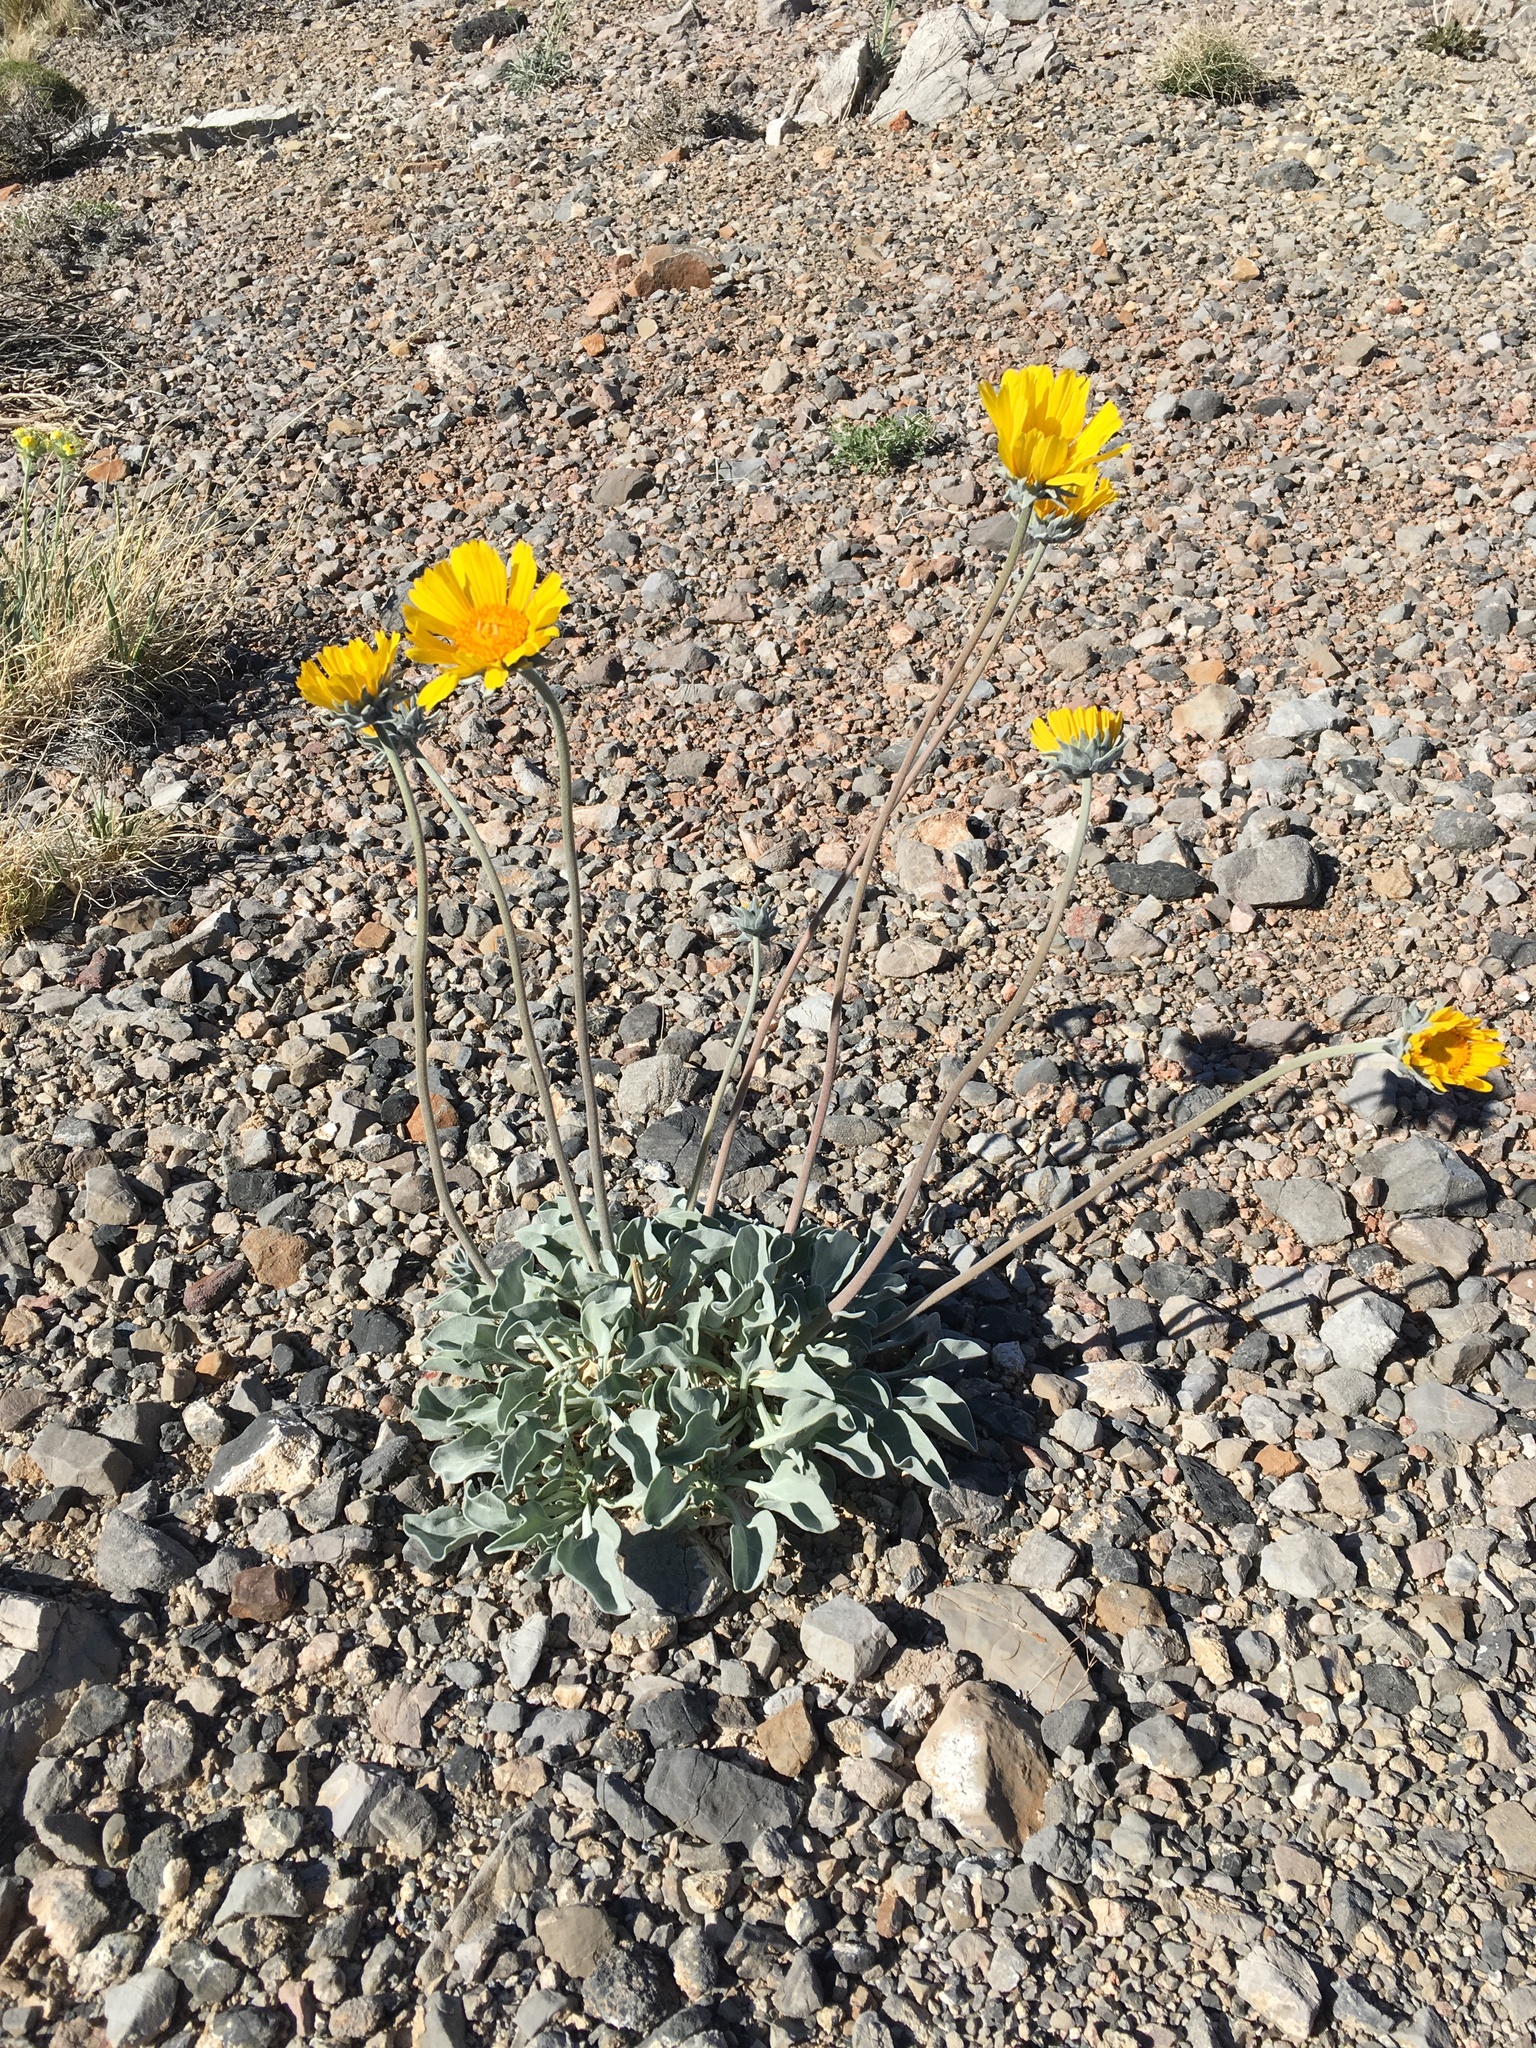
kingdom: Plantae
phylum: Tracheophyta
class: Magnoliopsida
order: Asterales
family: Asteraceae
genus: Enceliopsis
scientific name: Enceliopsis nudicaulis
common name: Naked-stem daisy
